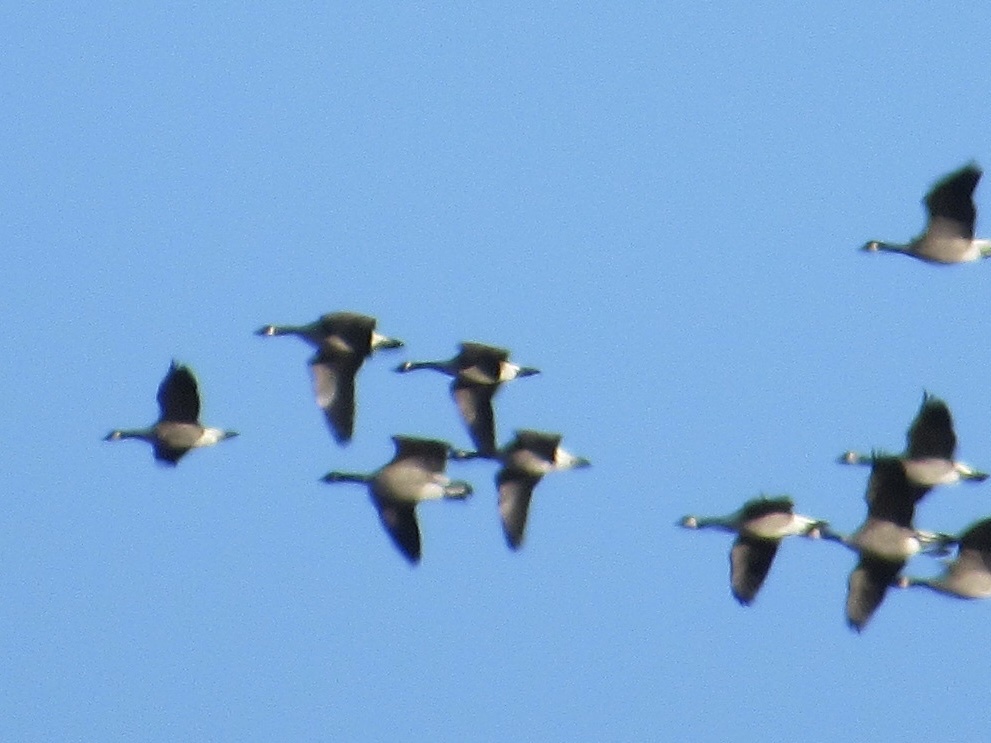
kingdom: Animalia
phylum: Chordata
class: Aves
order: Anseriformes
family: Anatidae
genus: Branta
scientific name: Branta canadensis
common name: Canada goose
